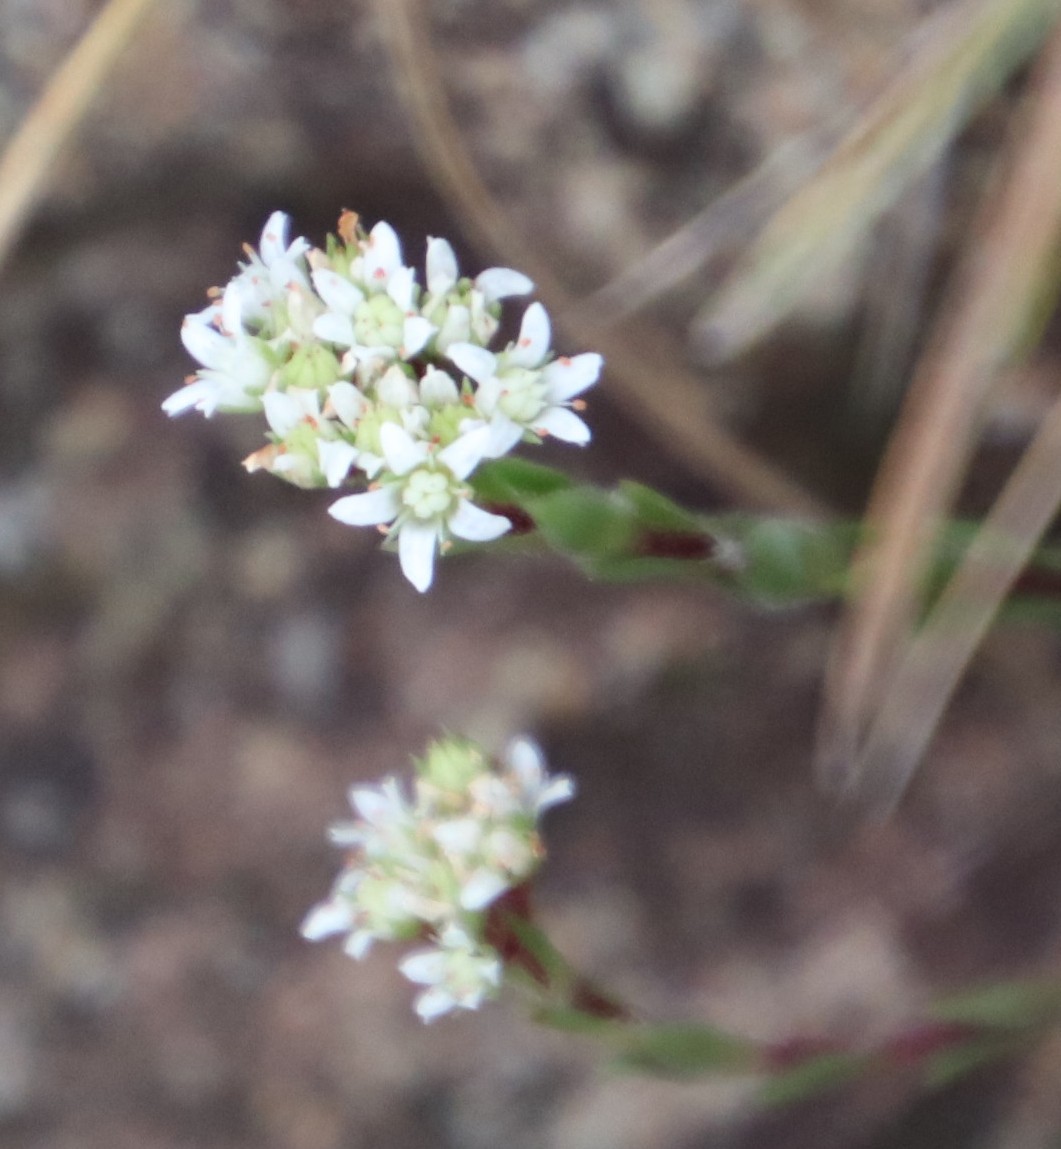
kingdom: Plantae
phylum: Tracheophyta
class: Magnoliopsida
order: Saxifragales
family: Crassulaceae
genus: Crassula
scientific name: Crassula setulosa
